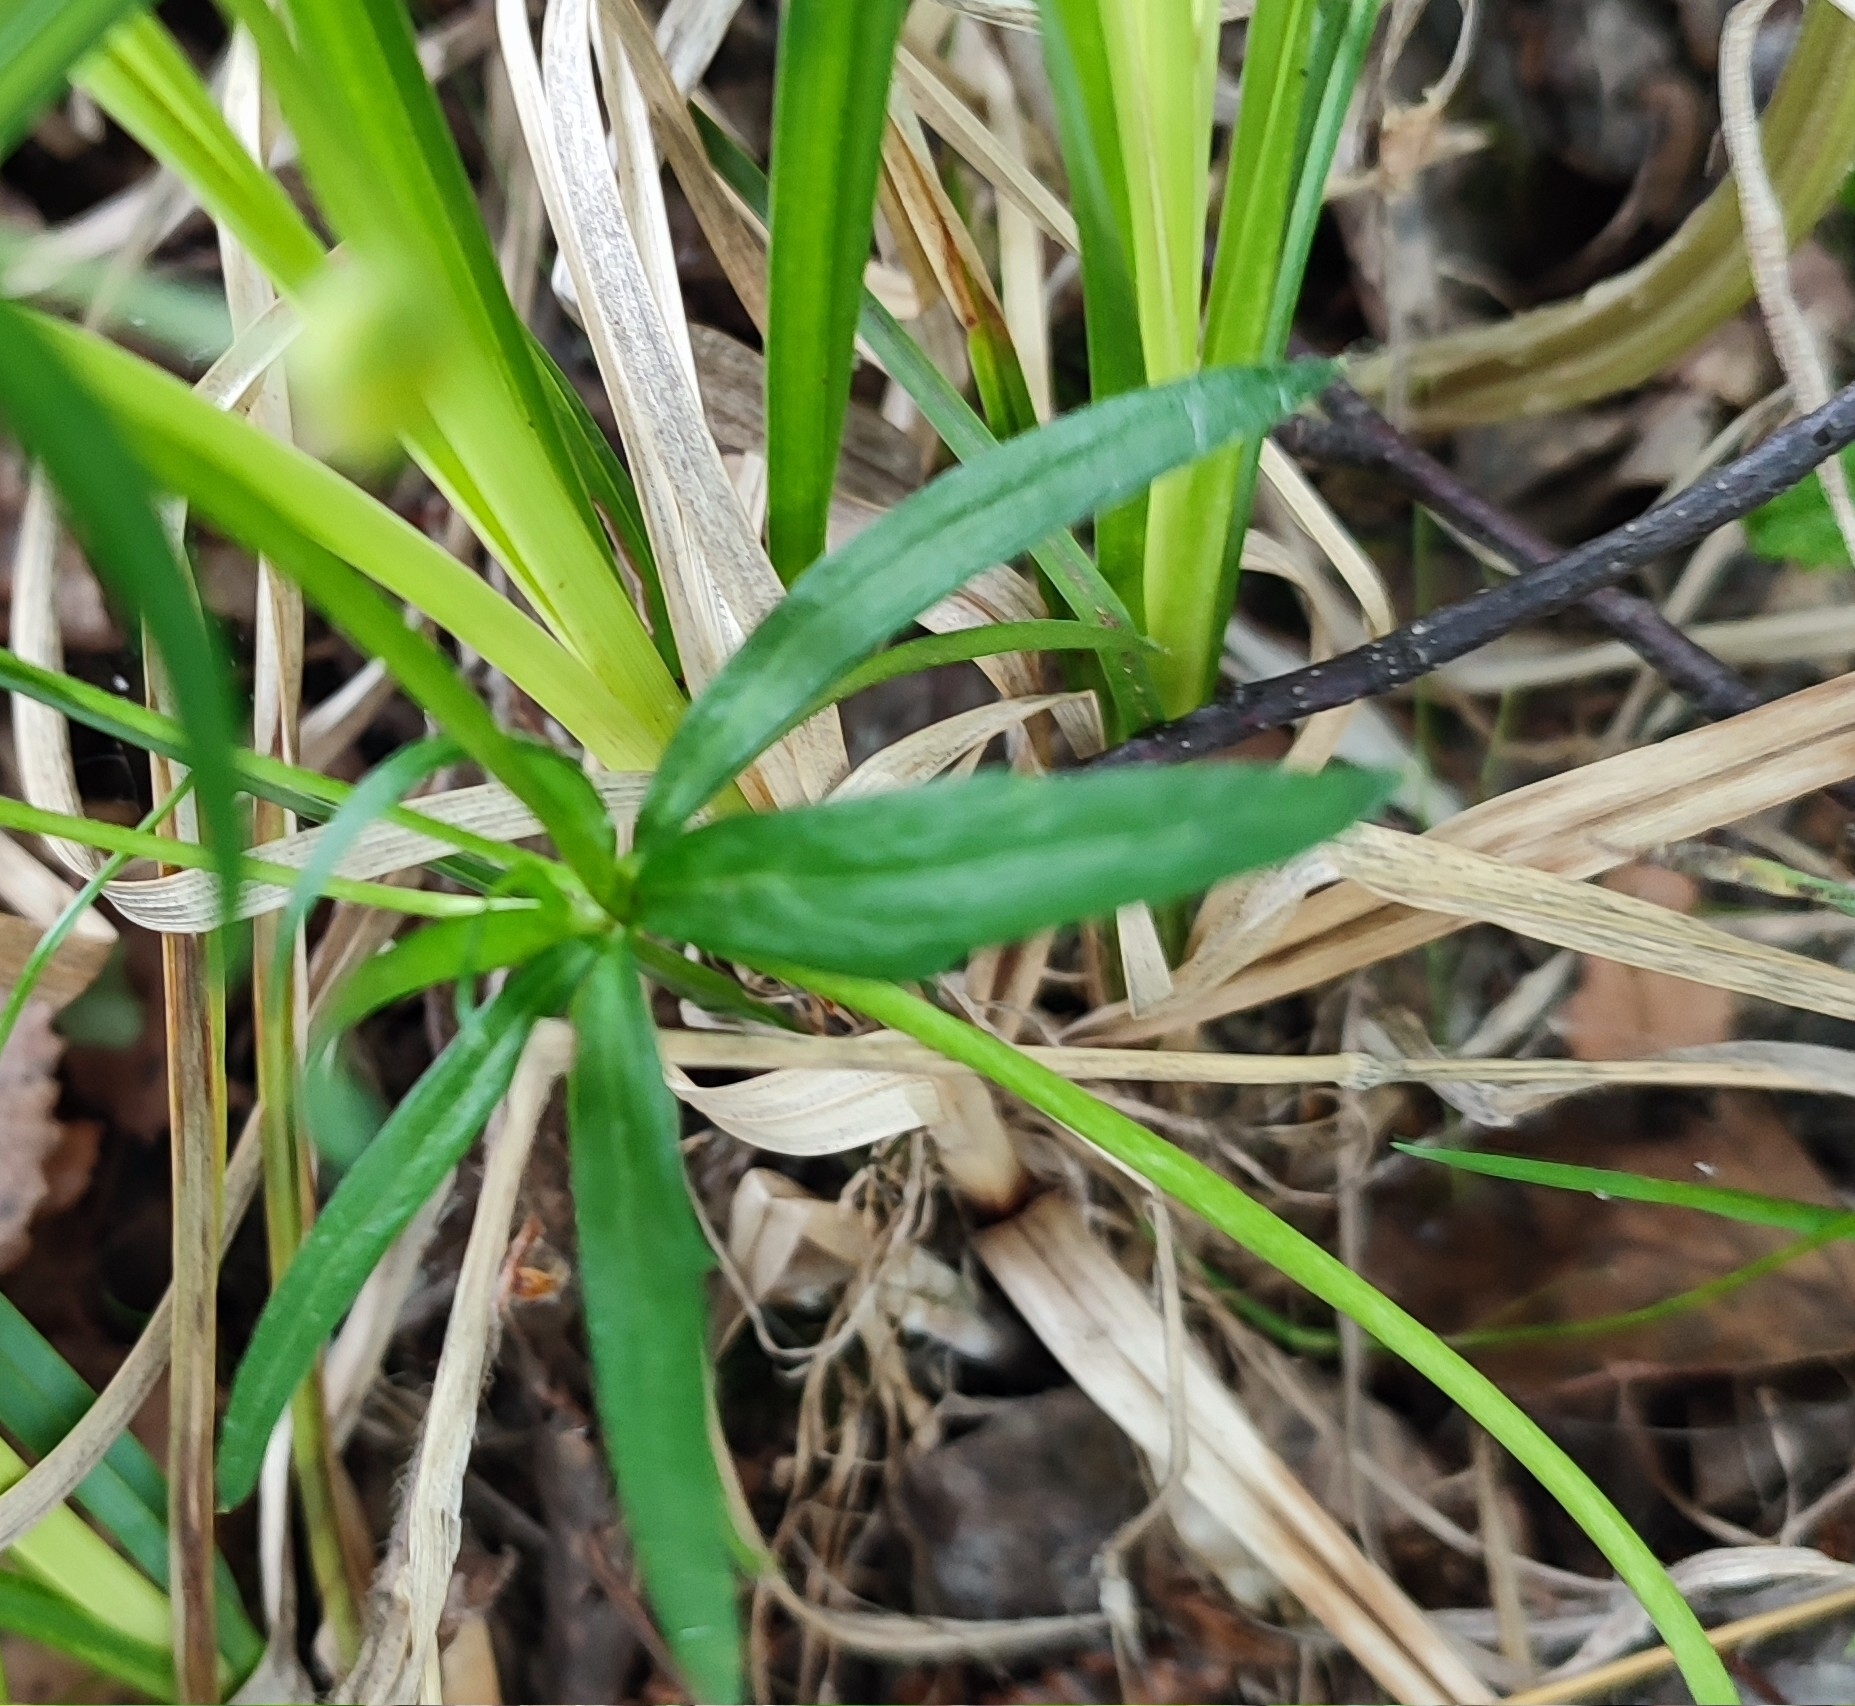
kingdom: Plantae
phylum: Tracheophyta
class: Magnoliopsida
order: Ranunculales
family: Ranunculaceae
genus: Ranunculus
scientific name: Ranunculus auricomus
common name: Goldilocks buttercup
